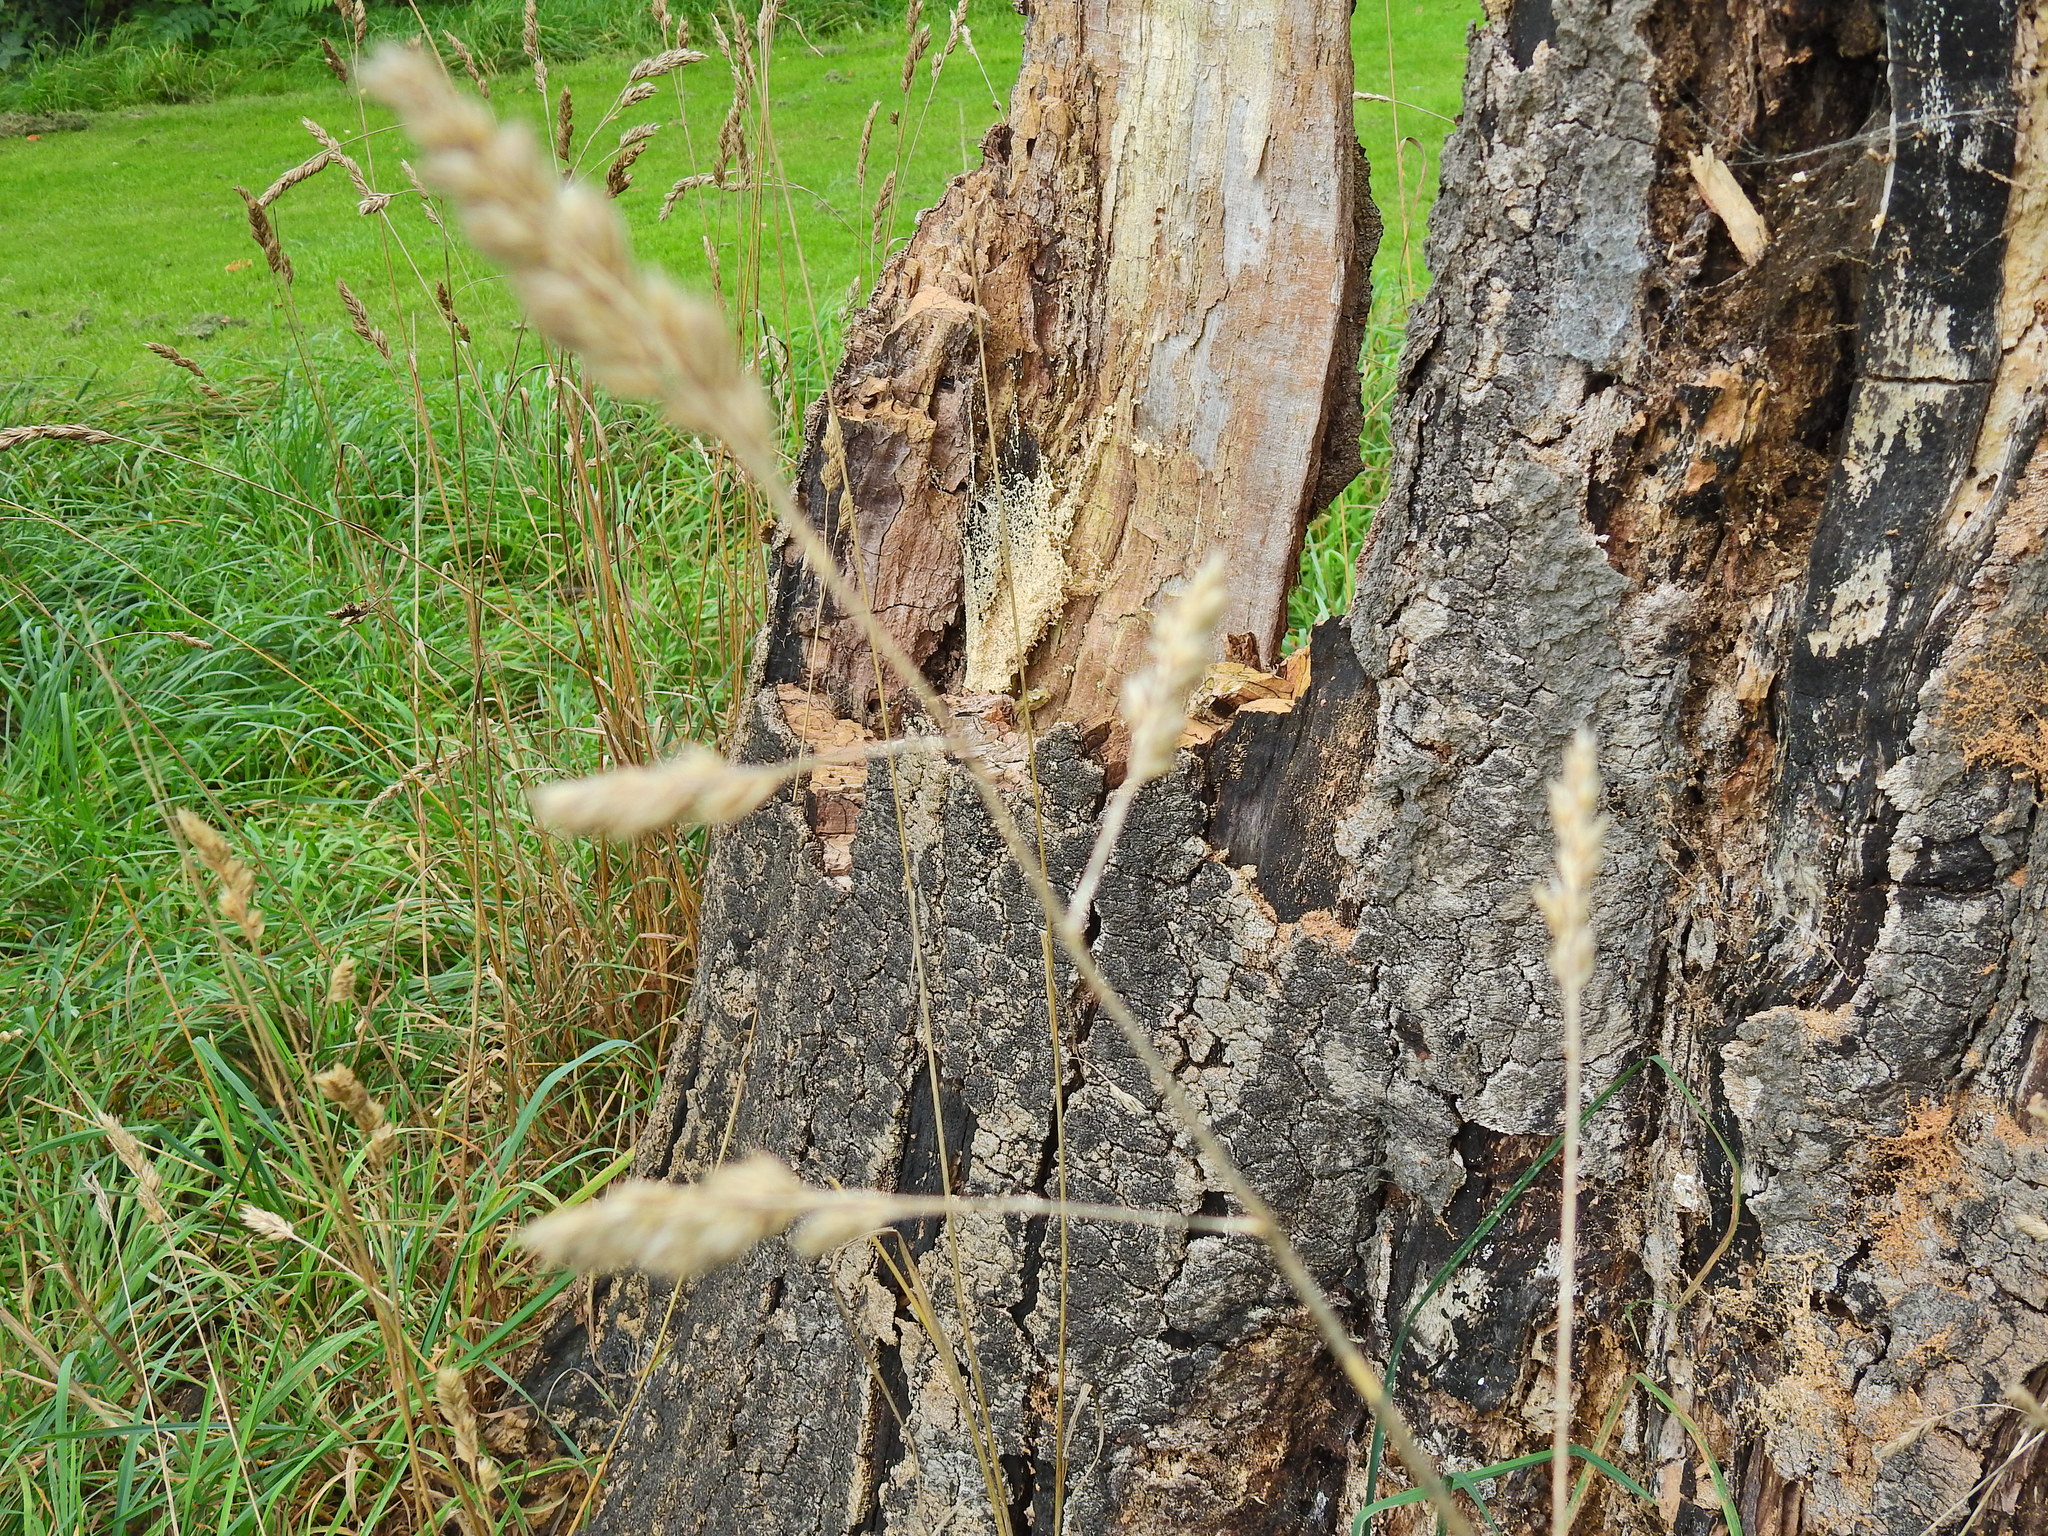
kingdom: Plantae
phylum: Tracheophyta
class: Liliopsida
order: Poales
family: Poaceae
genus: Dactylis
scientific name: Dactylis glomerata
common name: Orchardgrass
